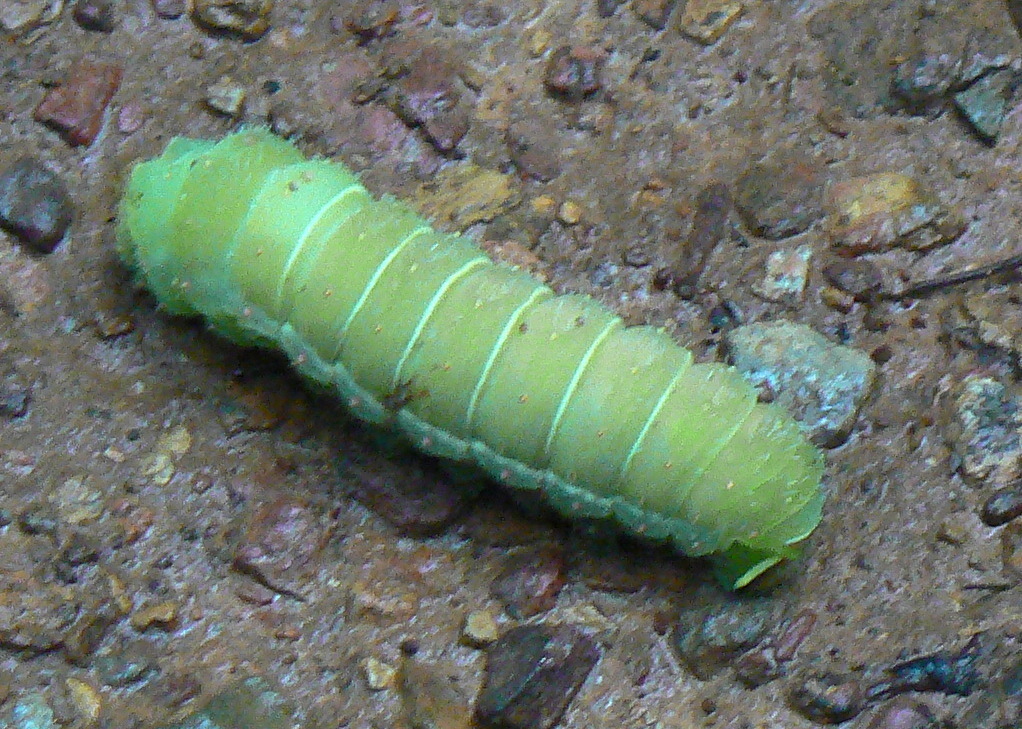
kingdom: Animalia
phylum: Arthropoda
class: Insecta
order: Lepidoptera
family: Saturniidae
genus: Actias
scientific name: Actias luna
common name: Luna moth
